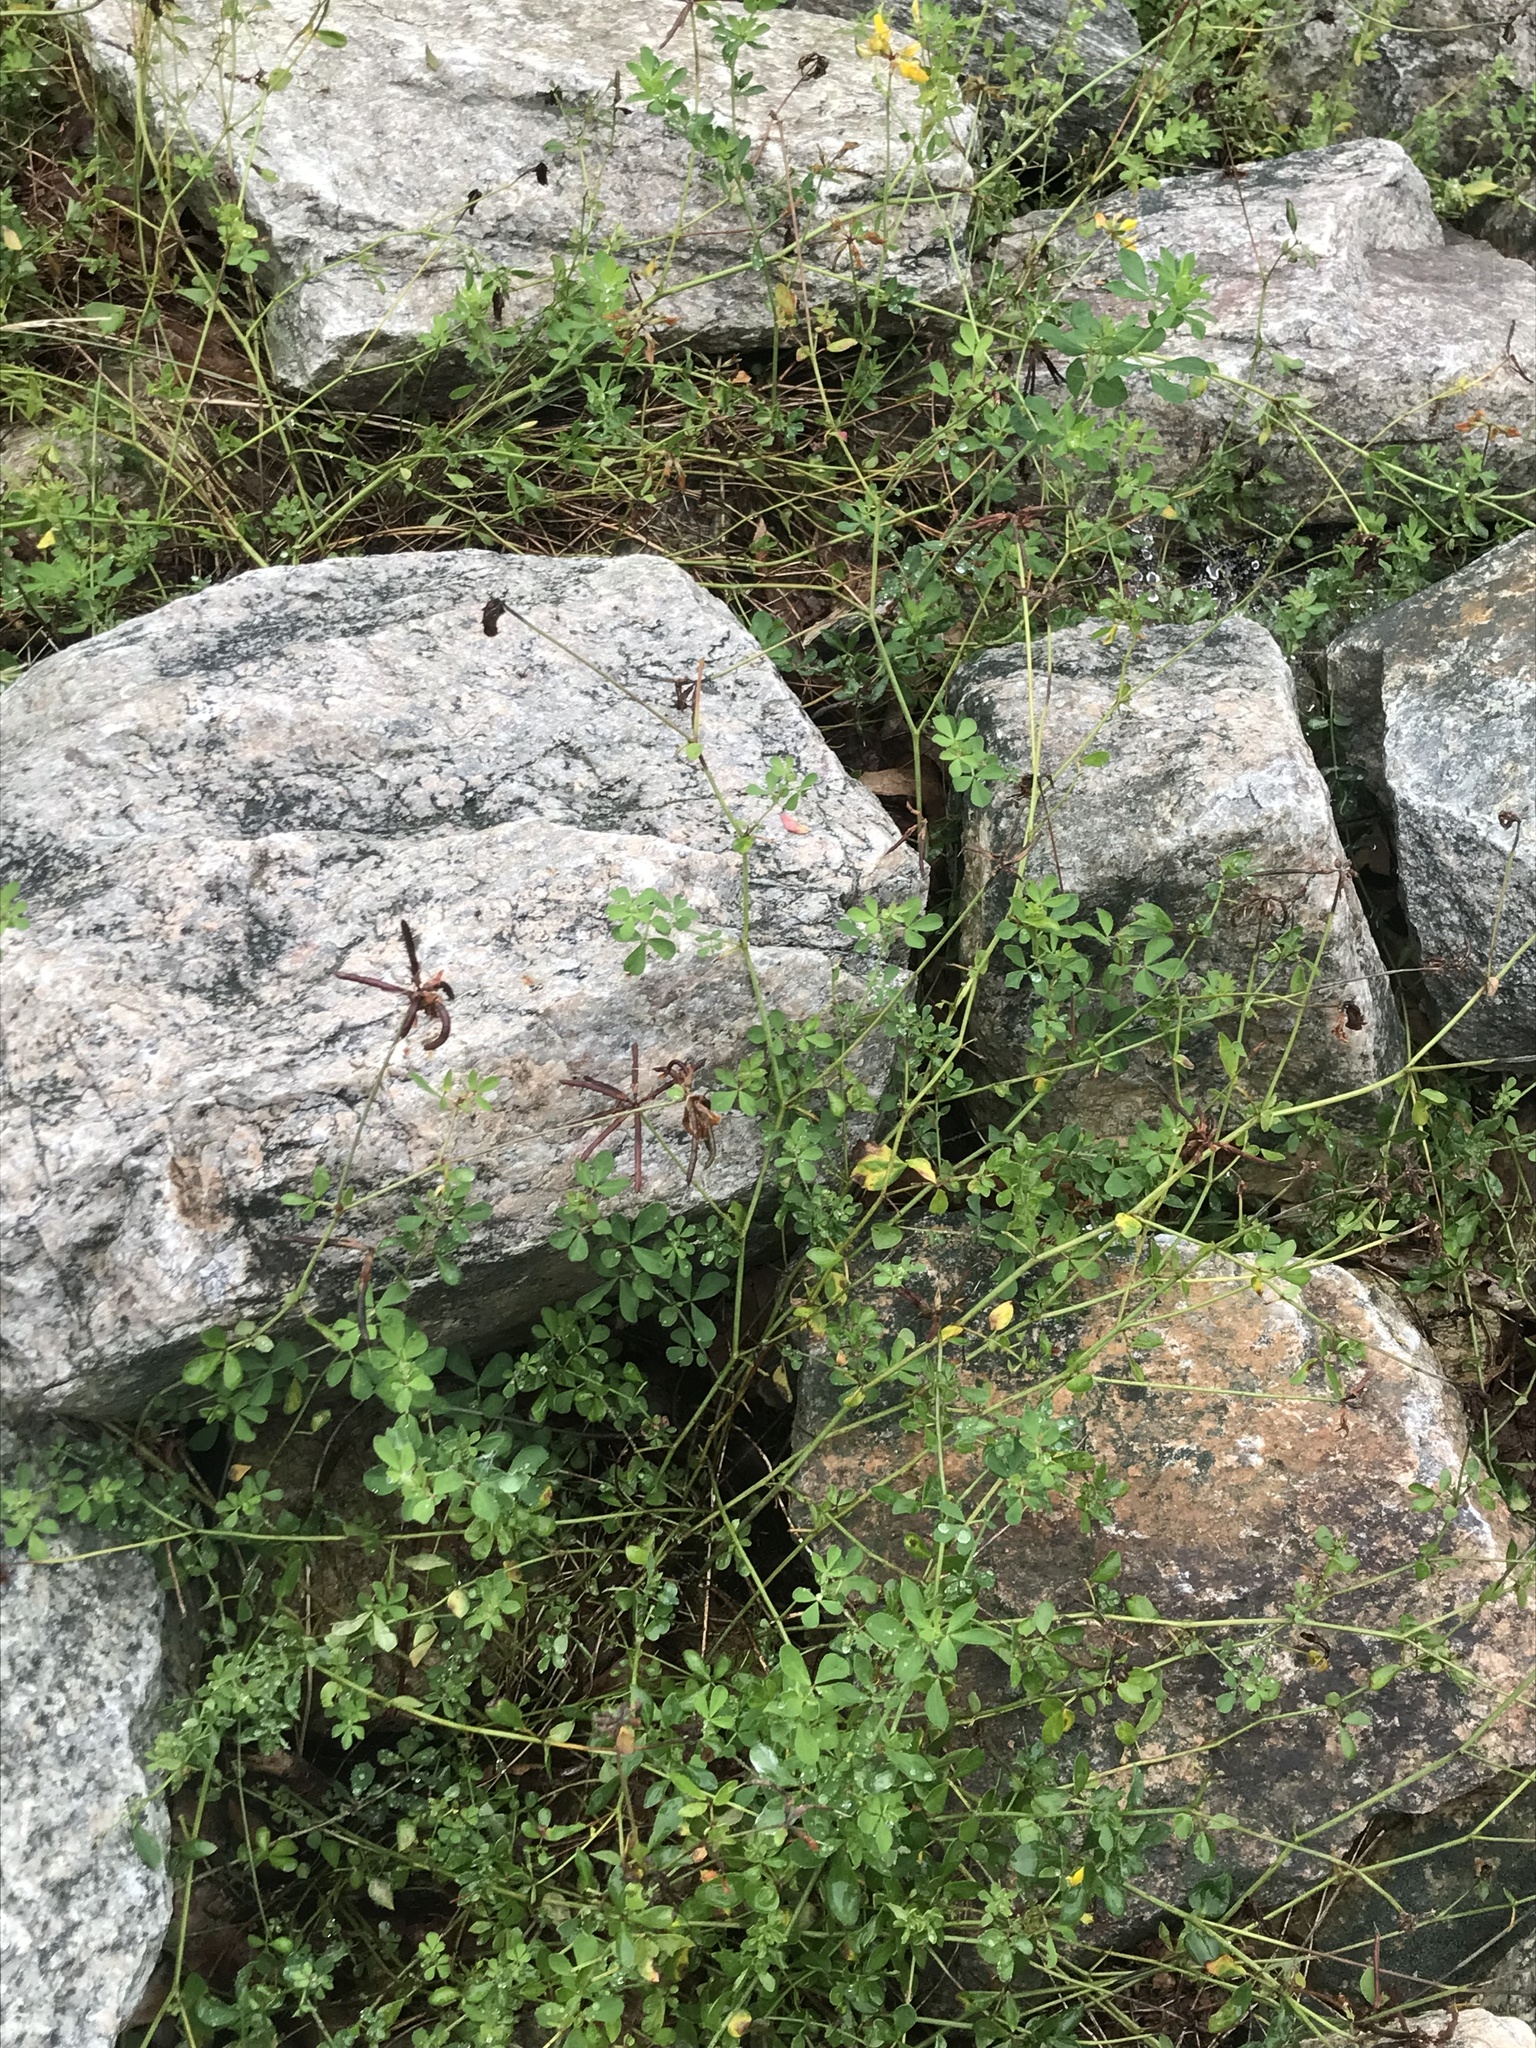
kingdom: Plantae
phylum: Tracheophyta
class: Magnoliopsida
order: Fabales
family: Fabaceae
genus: Lotus
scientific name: Lotus corniculatus
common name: Common bird's-foot-trefoil
